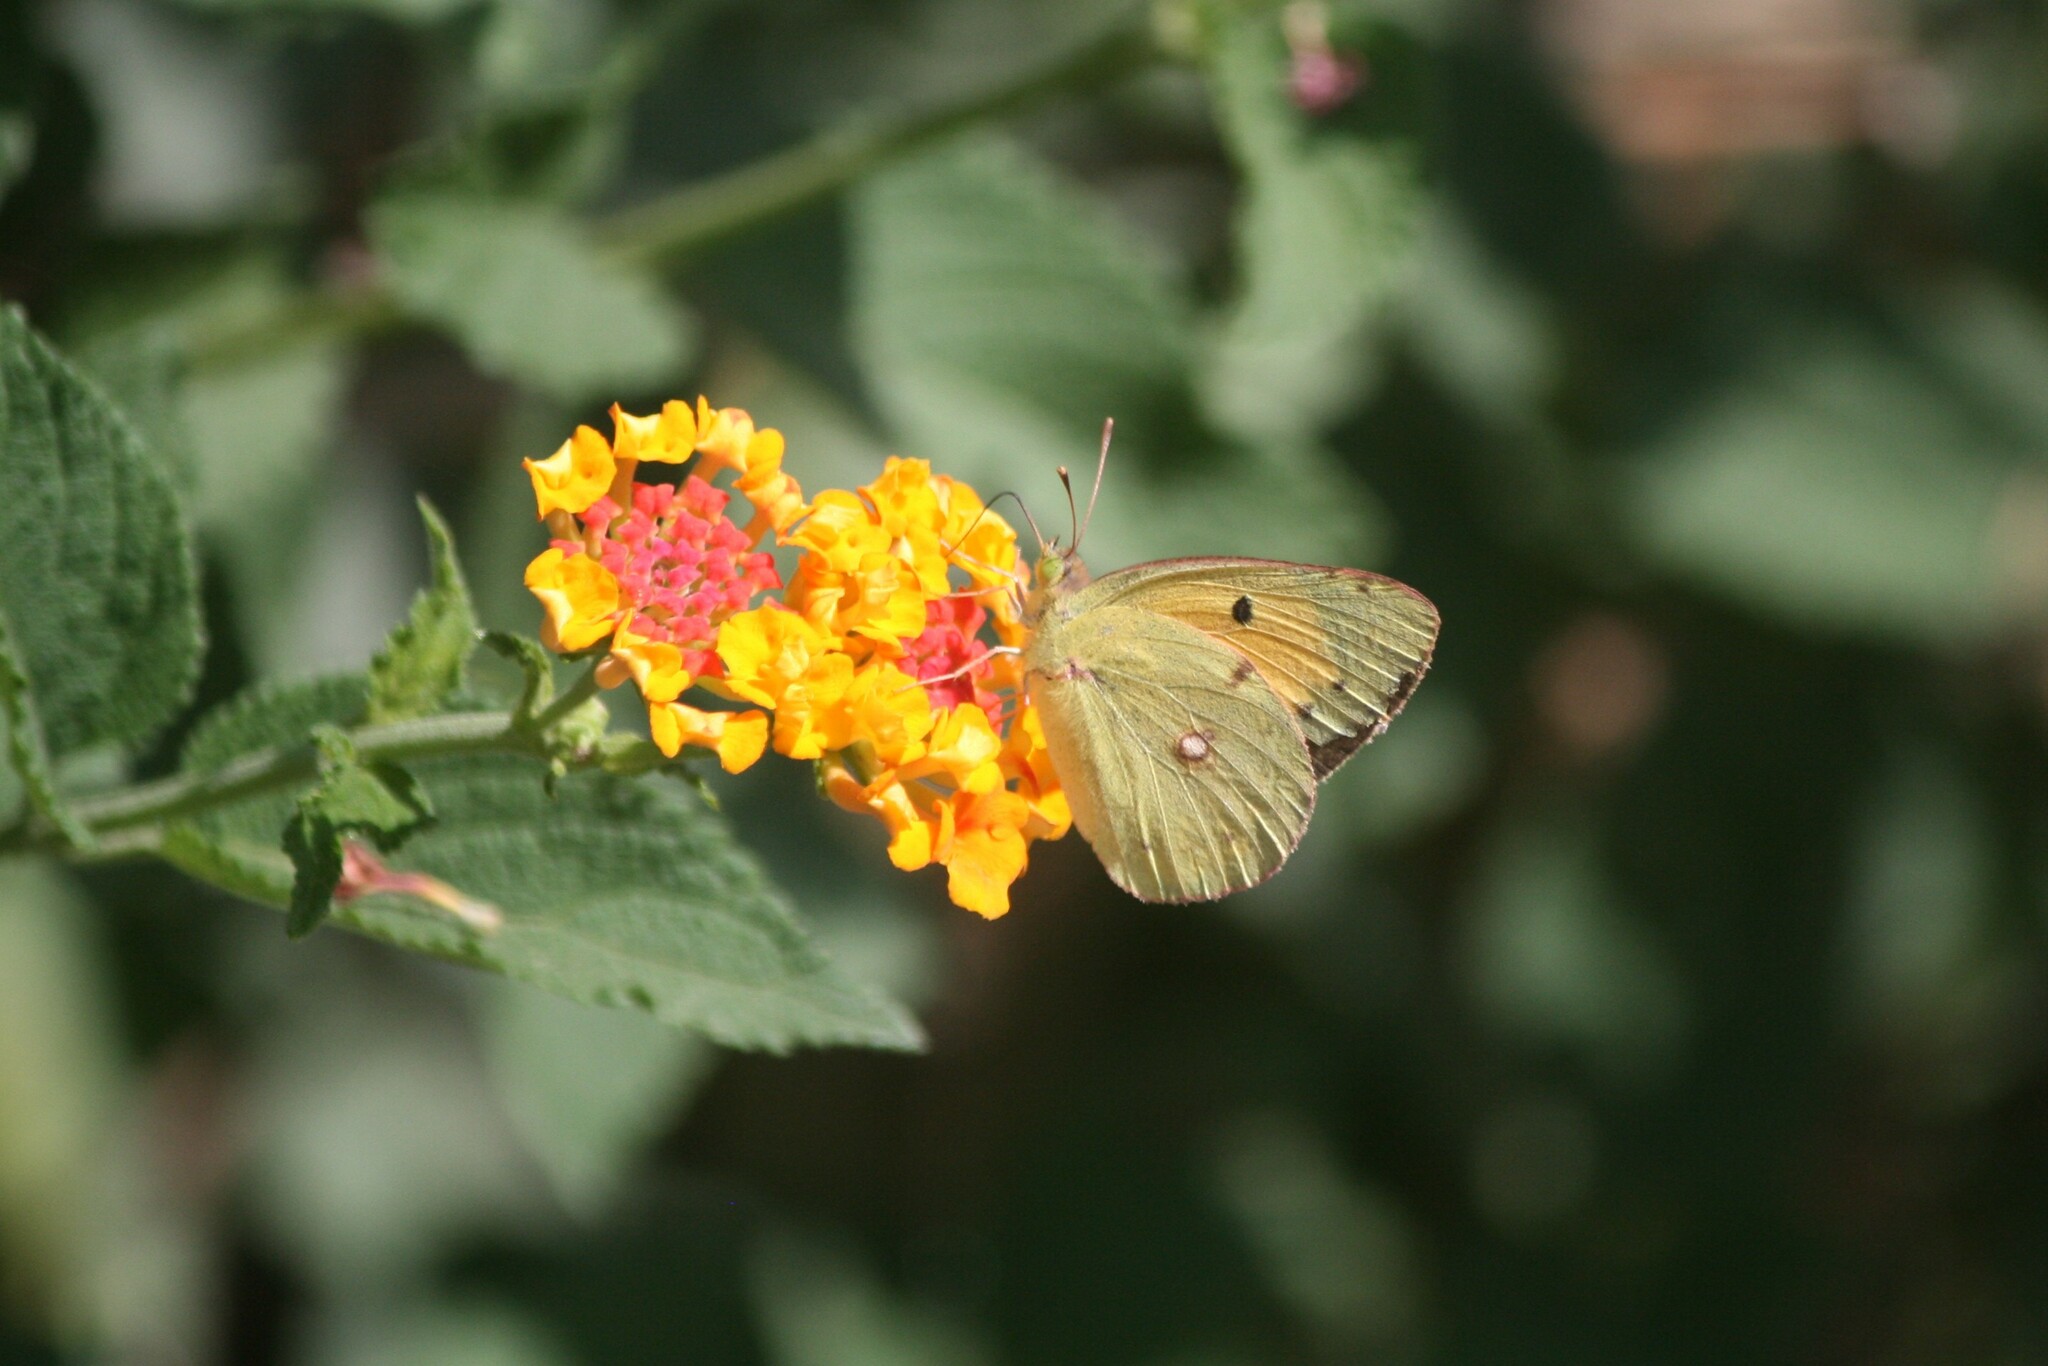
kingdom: Animalia
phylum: Arthropoda
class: Insecta
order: Lepidoptera
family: Pieridae
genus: Colias
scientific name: Colias croceus
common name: Clouded yellow
